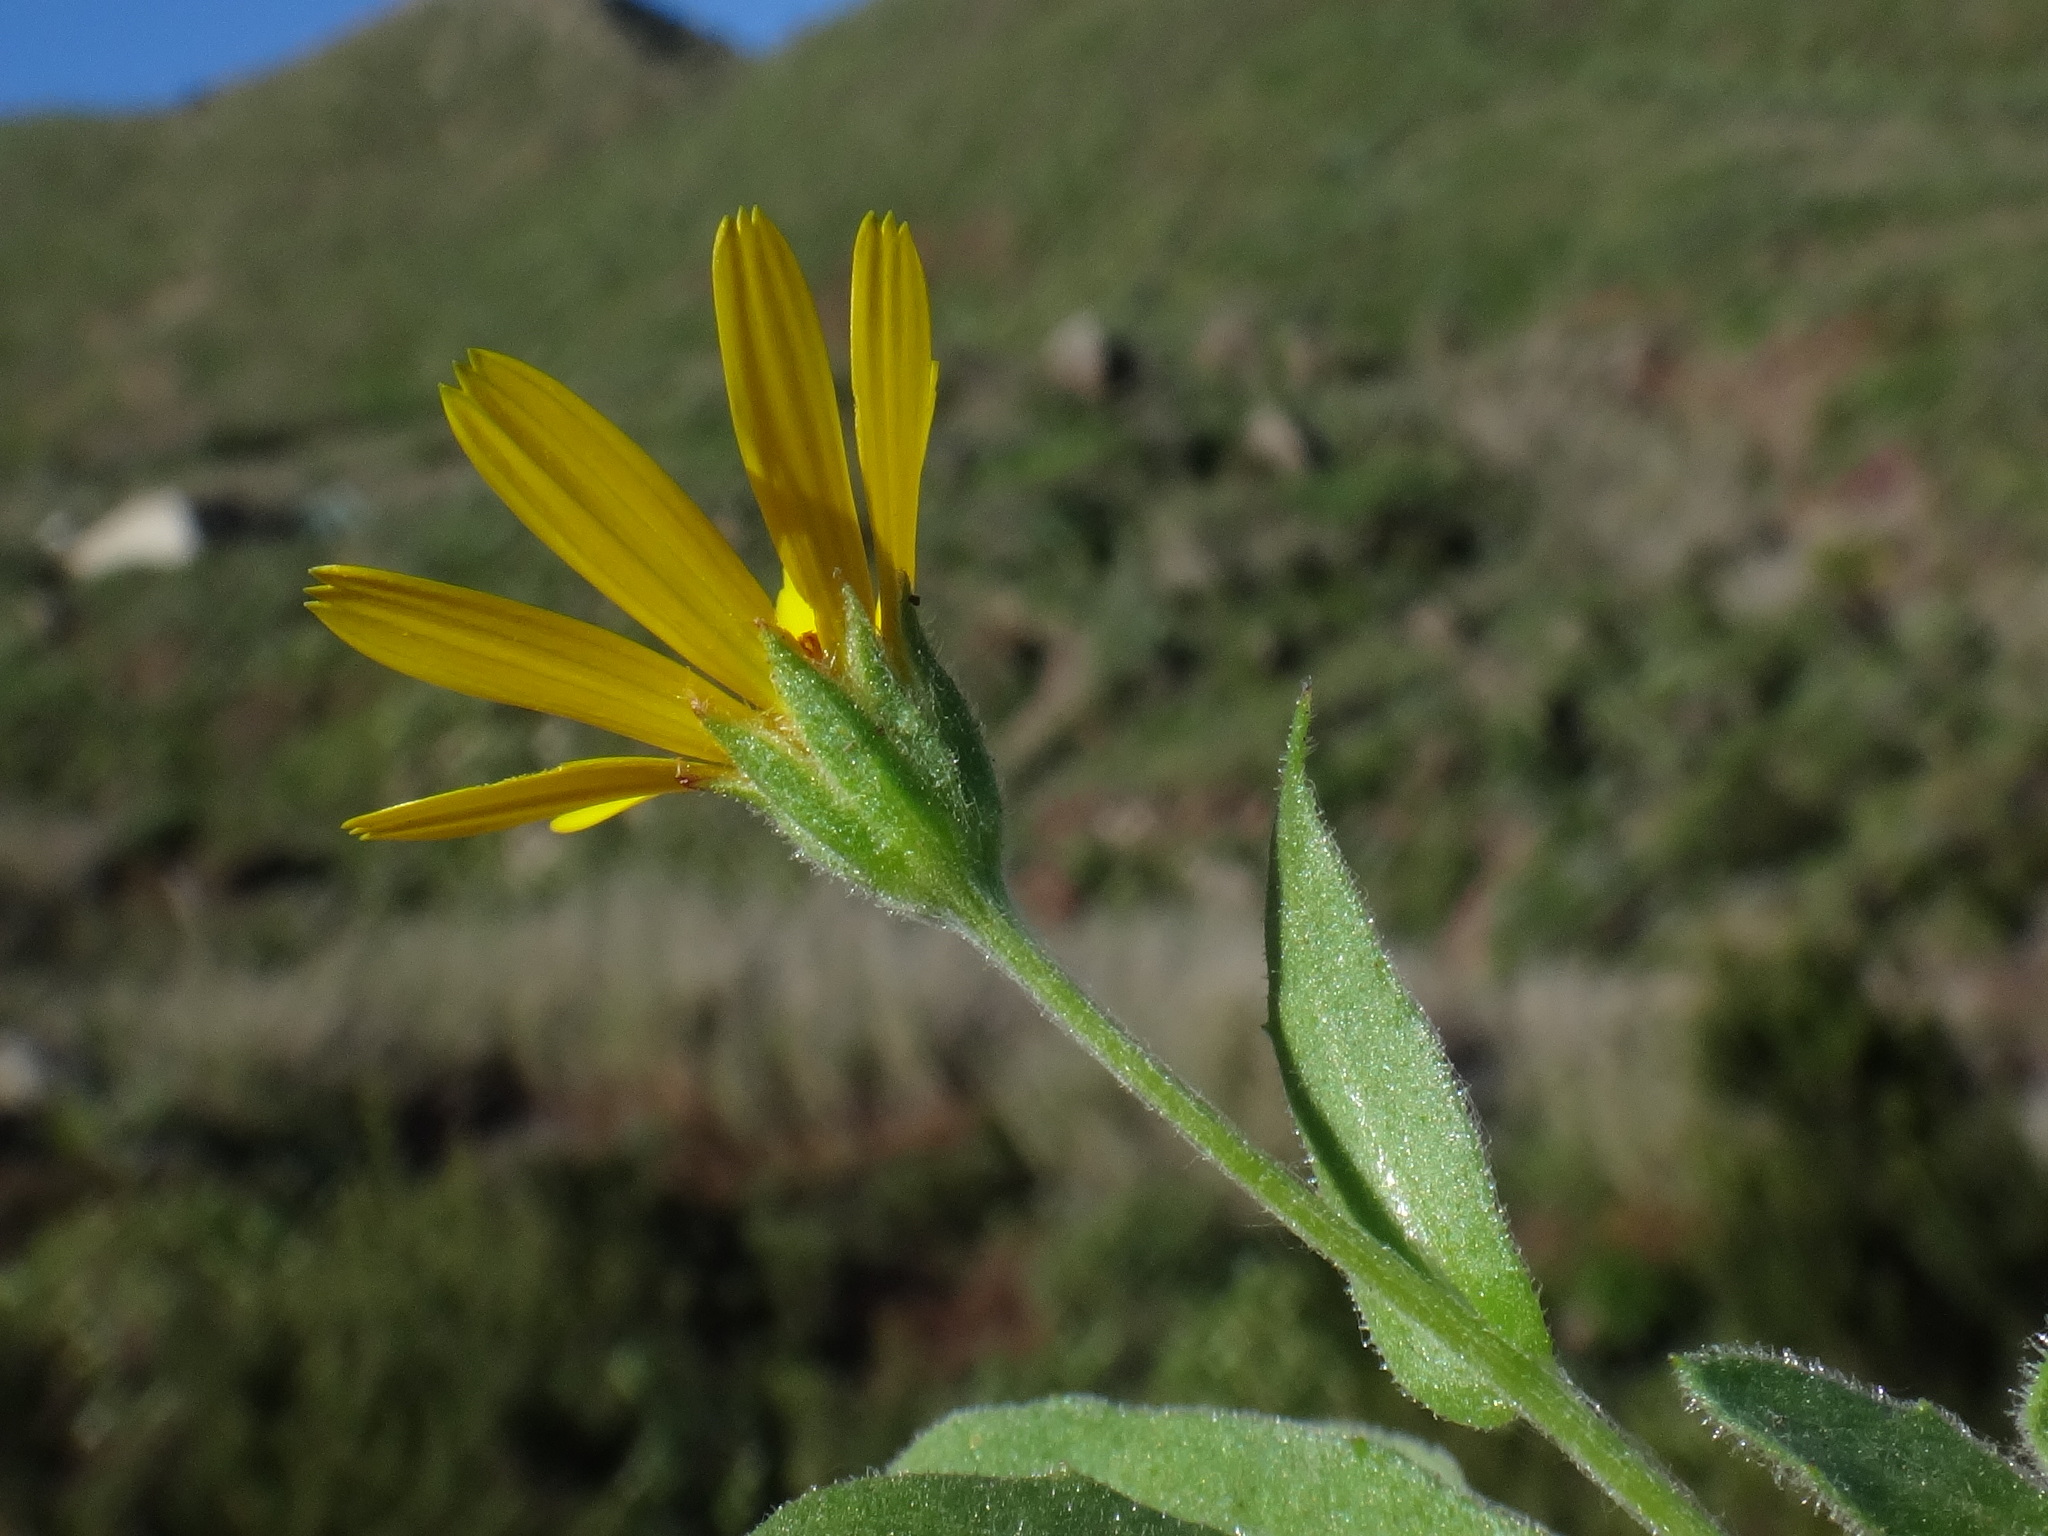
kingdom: Plantae
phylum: Tracheophyta
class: Magnoliopsida
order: Asterales
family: Asteraceae
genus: Calendula
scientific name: Calendula arvensis
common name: Field marigold
